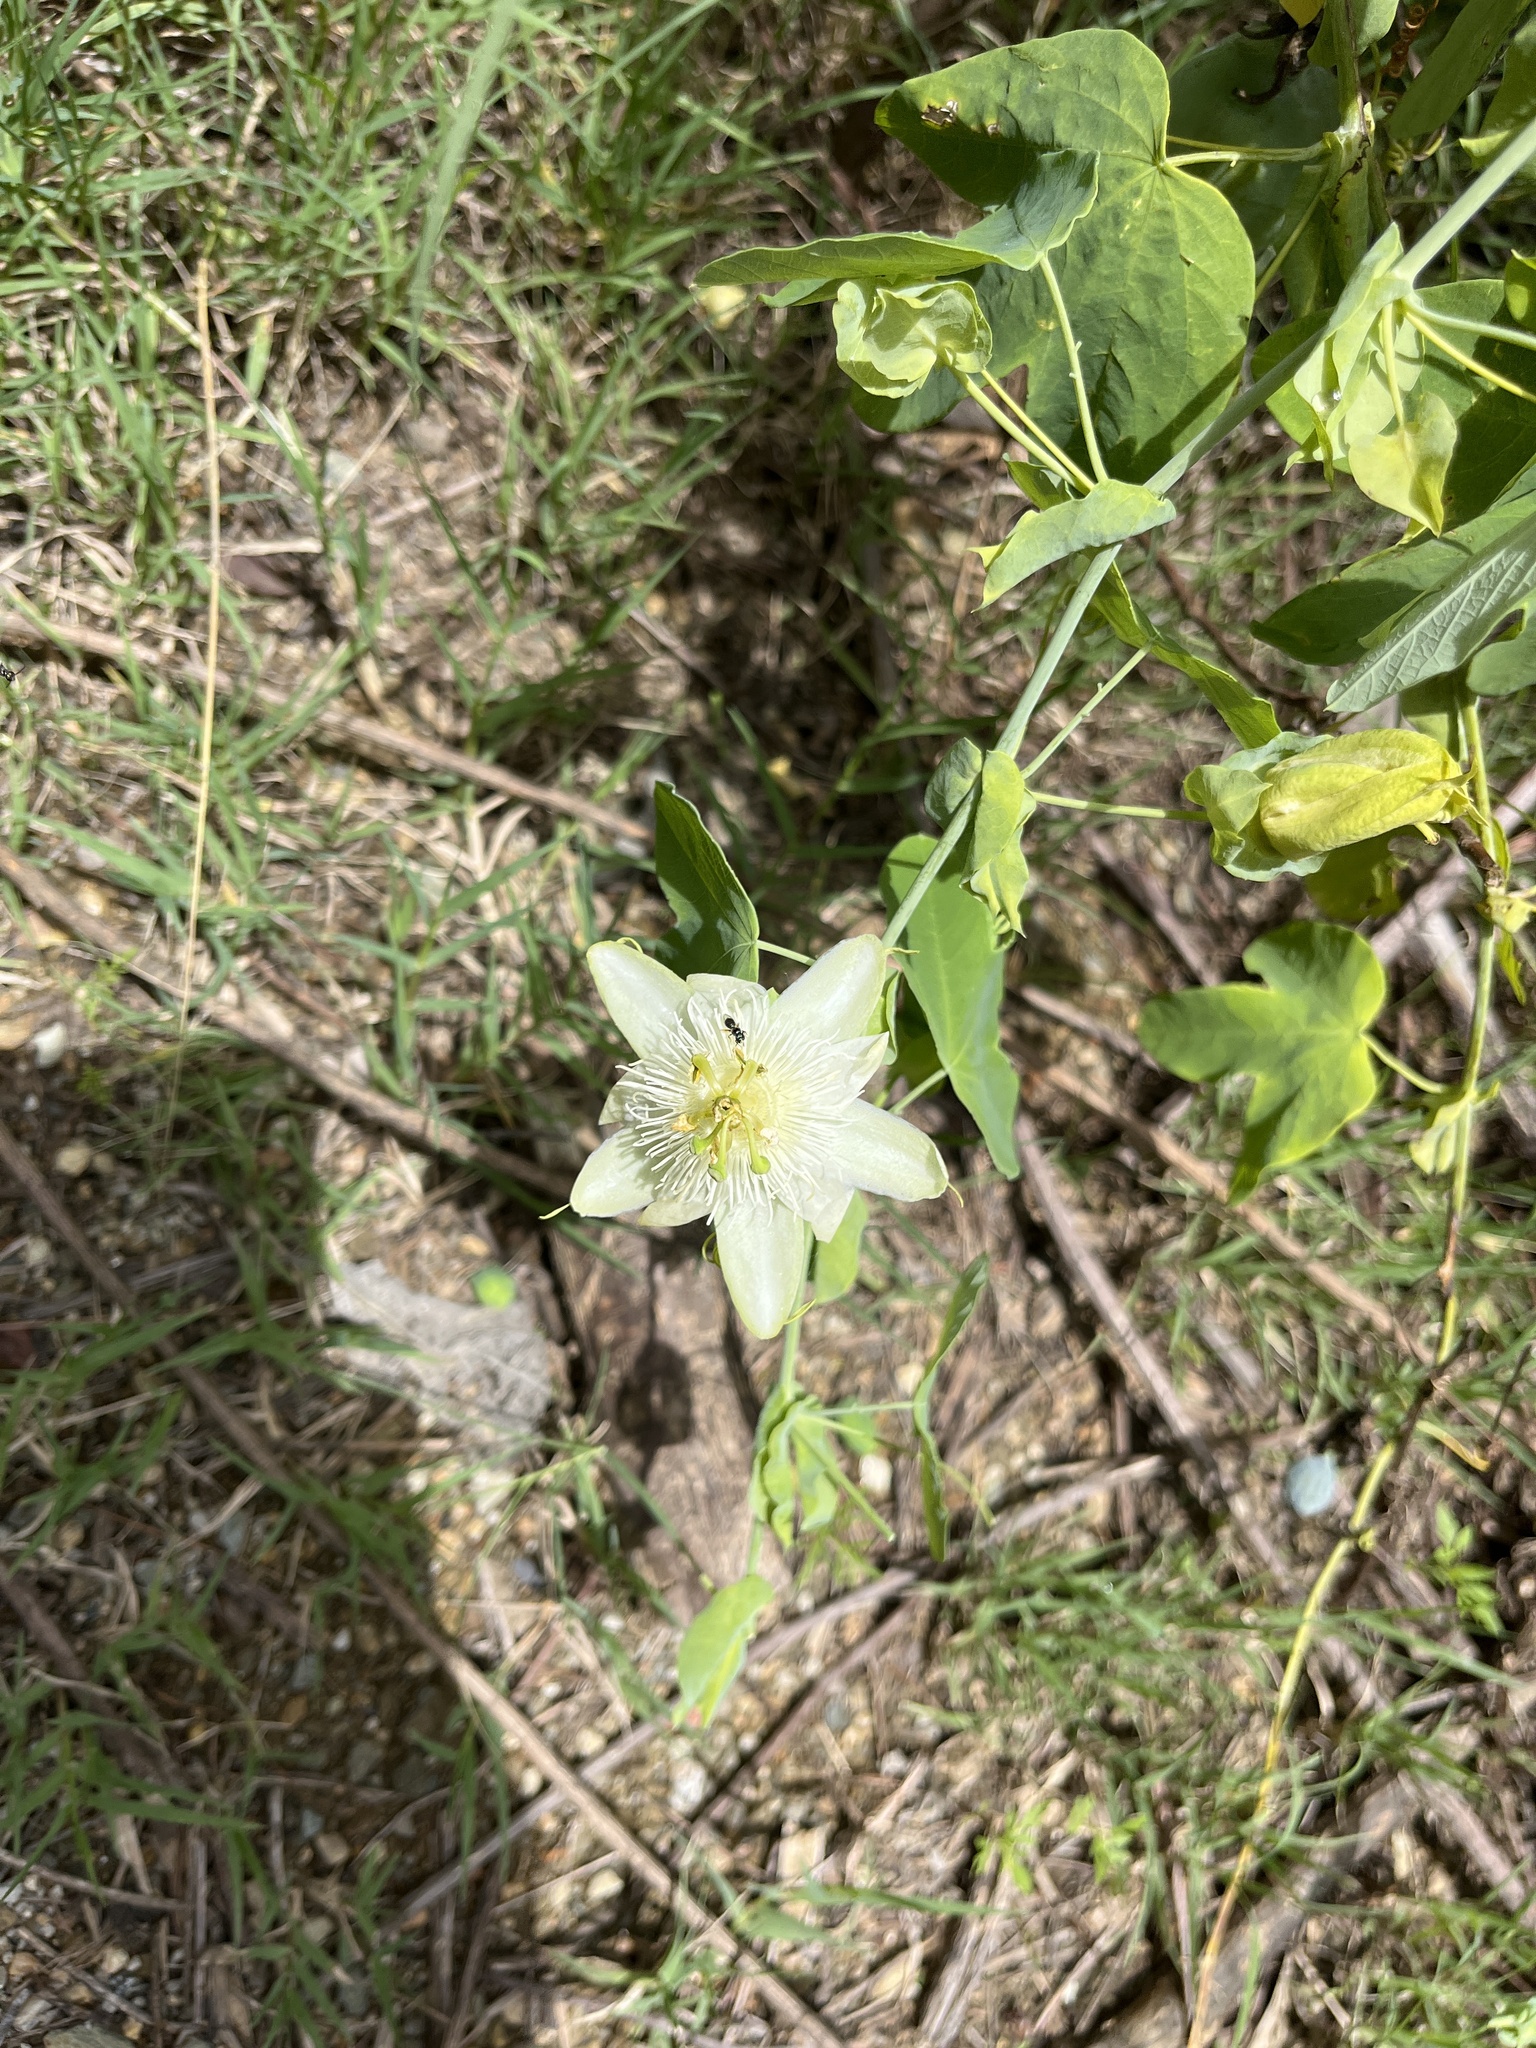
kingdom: Plantae
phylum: Tracheophyta
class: Magnoliopsida
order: Malpighiales
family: Passifloraceae
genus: Passiflora
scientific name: Passiflora subpeltata
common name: White passionflower
